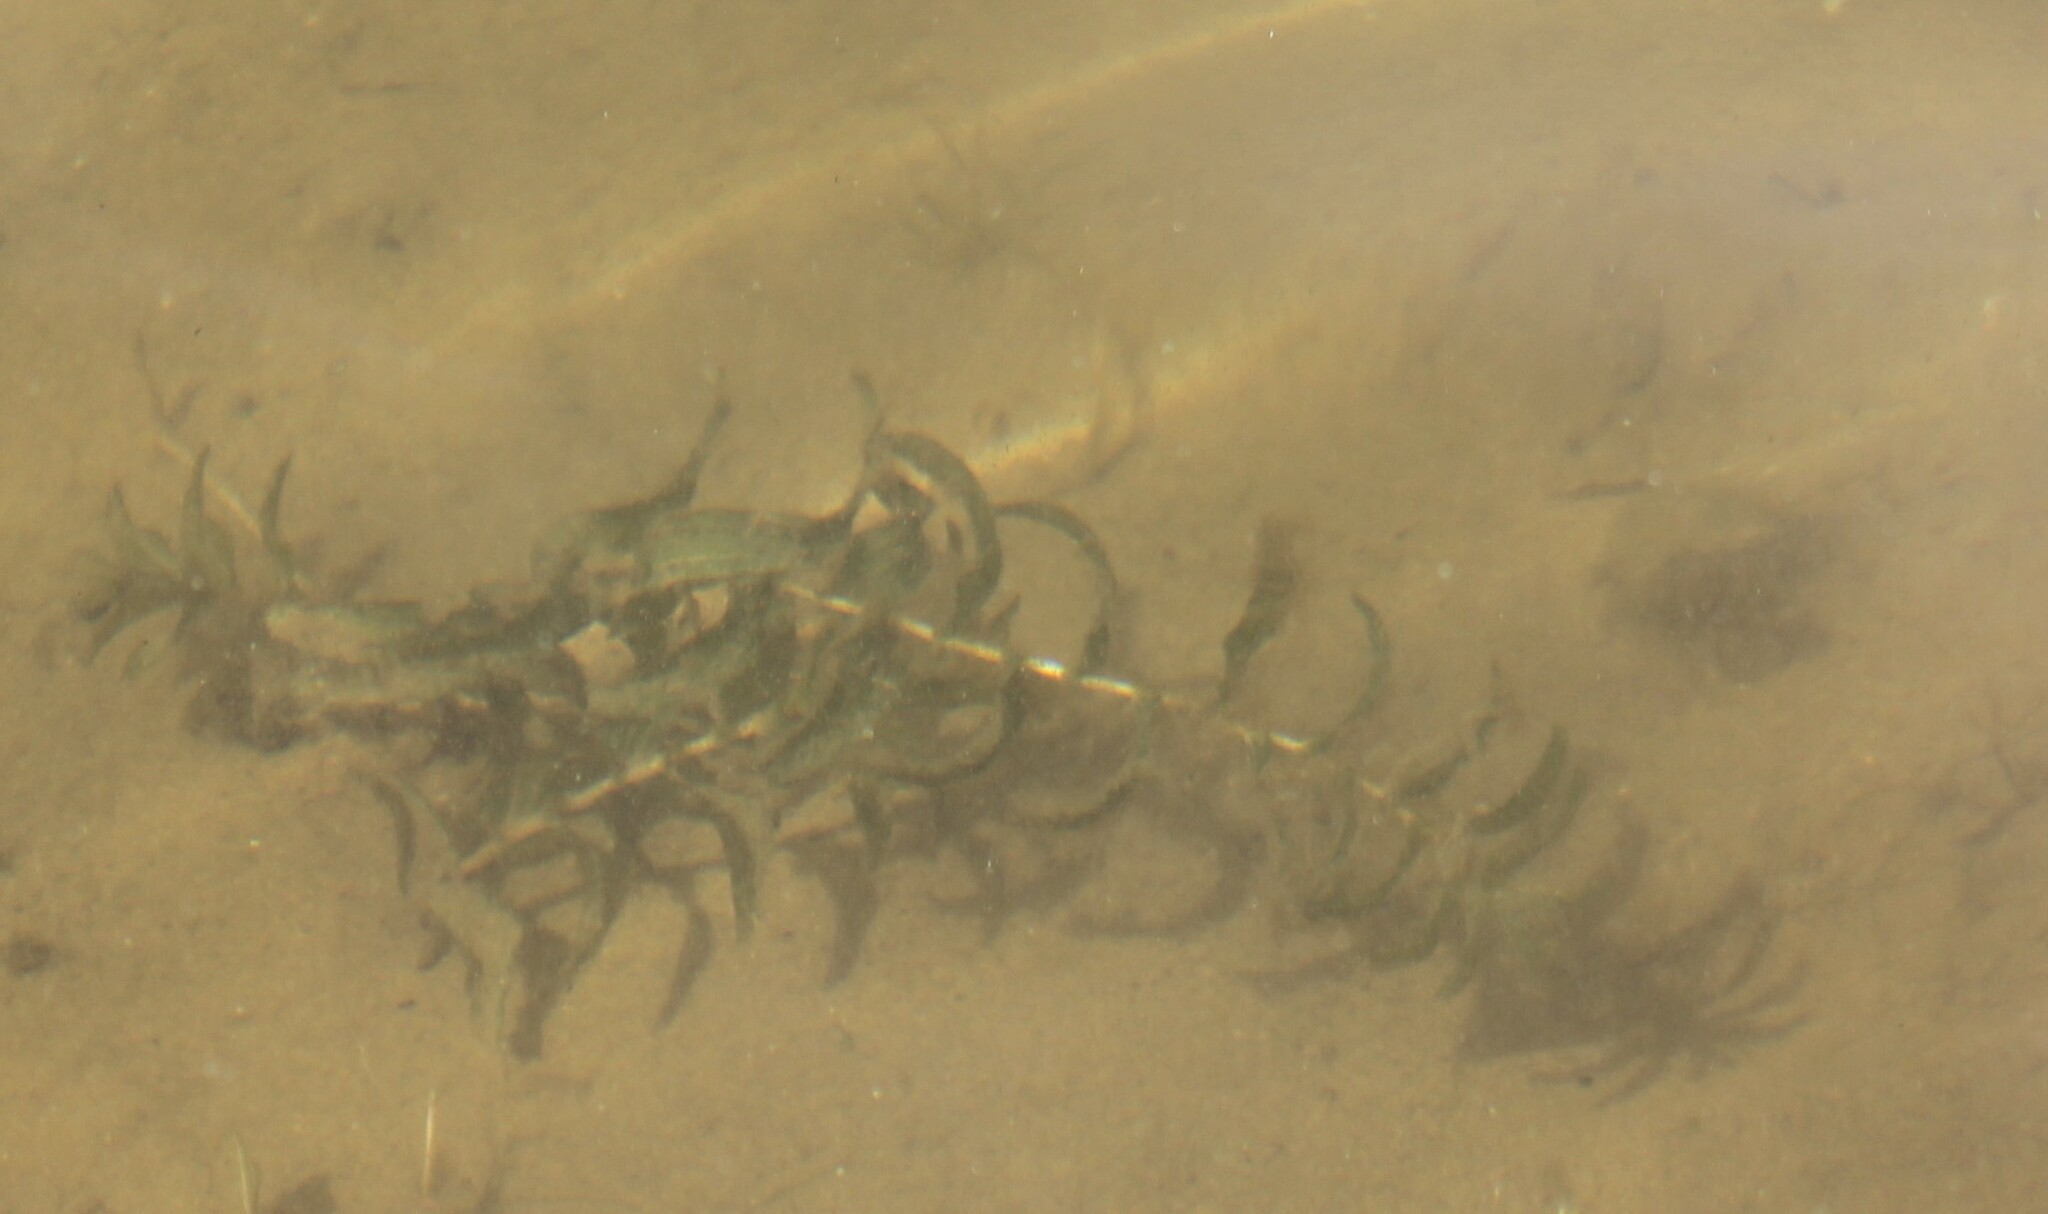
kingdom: Plantae
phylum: Tracheophyta
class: Liliopsida
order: Alismatales
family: Potamogetonaceae
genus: Potamogeton
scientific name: Potamogeton crispus
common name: Curled pondweed
